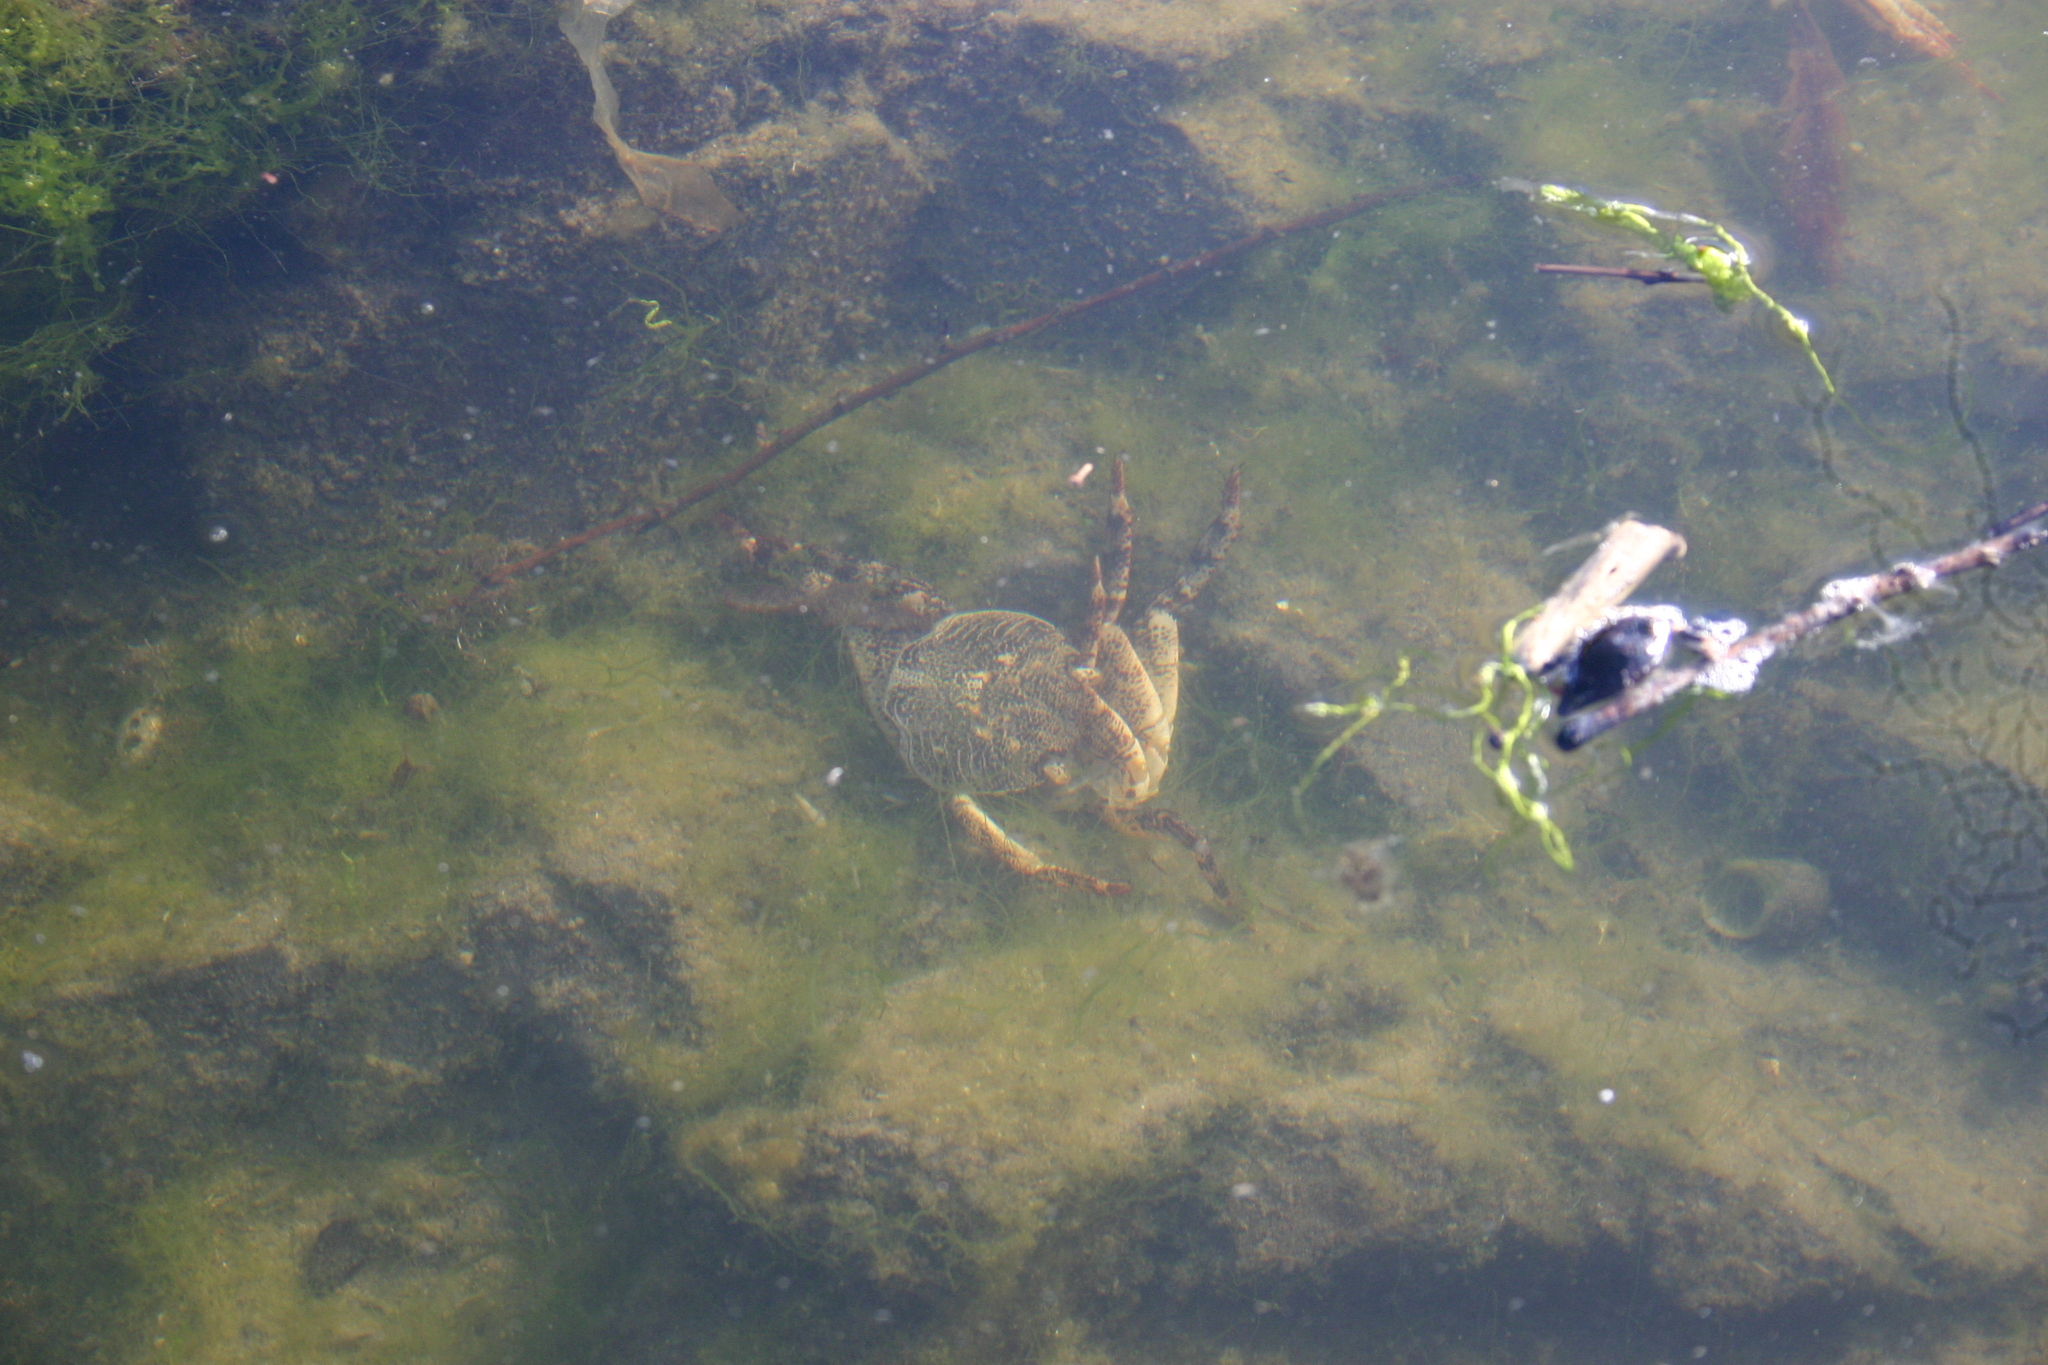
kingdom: Animalia
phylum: Arthropoda
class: Malacostraca
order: Decapoda
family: Grapsidae
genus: Leptograpsus
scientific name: Leptograpsus variegatus
